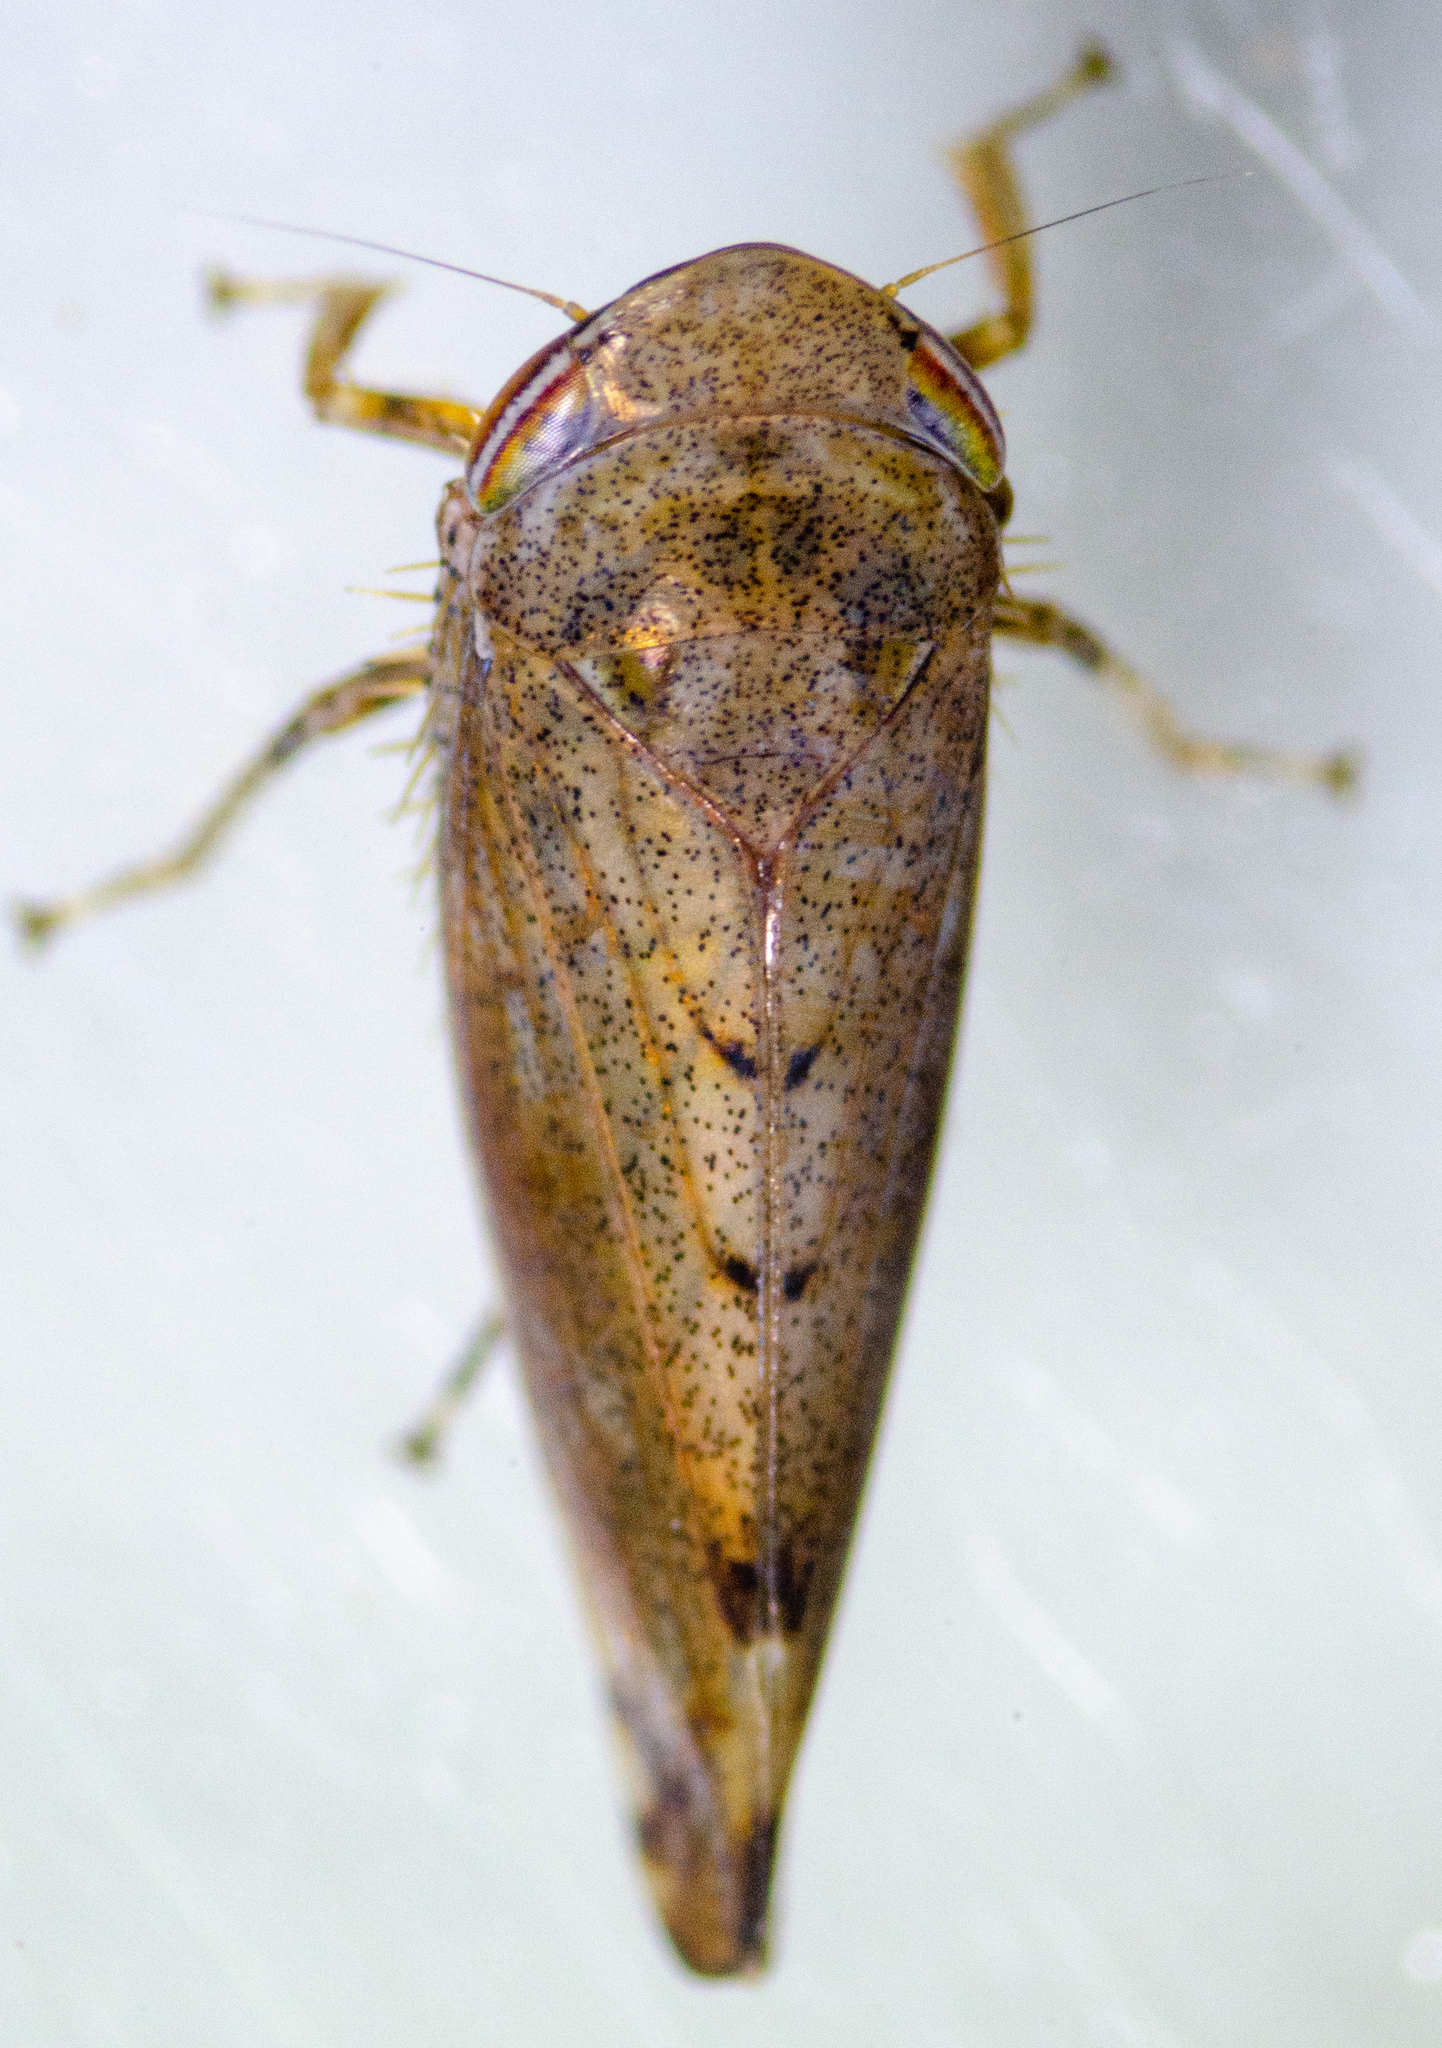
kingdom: Animalia
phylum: Arthropoda
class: Insecta
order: Hemiptera
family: Cicadellidae
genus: Fieberiella
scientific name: Fieberiella florii
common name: Flor’s leafhopper
